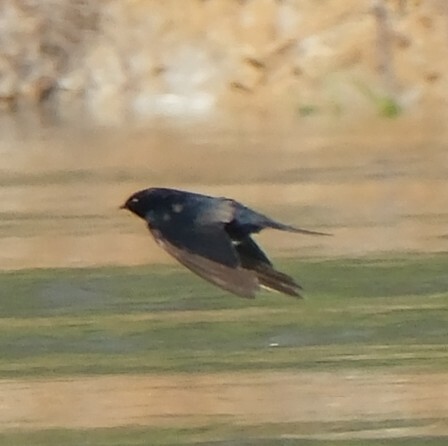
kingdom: Animalia
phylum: Chordata
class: Aves
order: Passeriformes
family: Hirundinidae
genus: Atticora
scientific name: Atticora fasciata
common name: White-banded swallow
